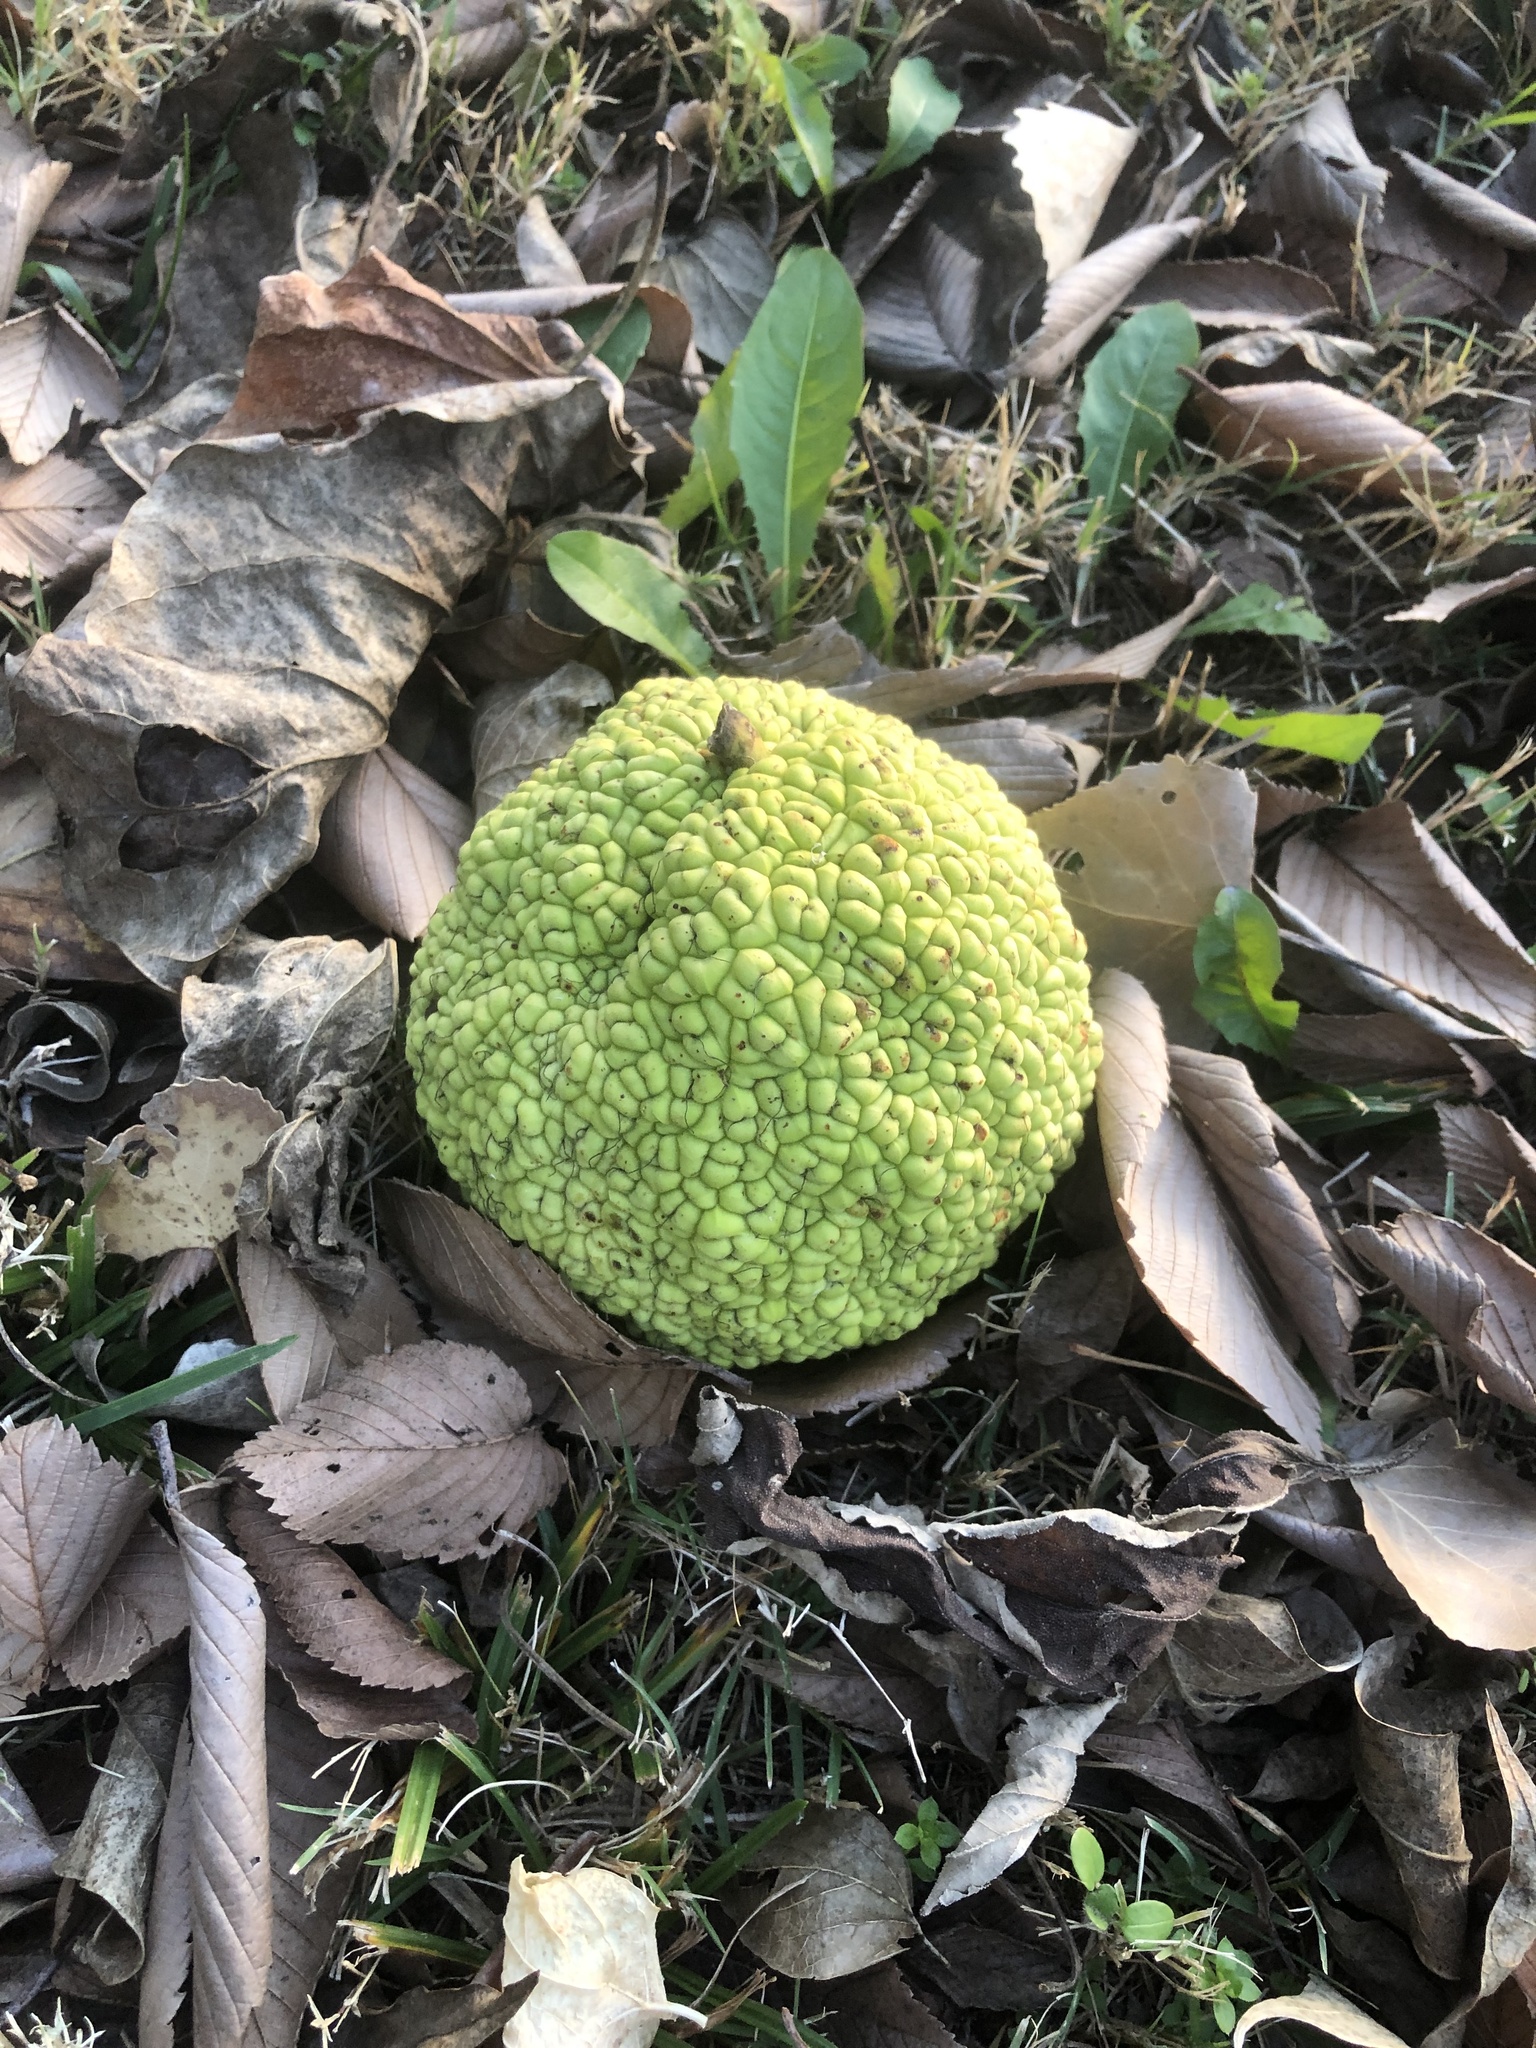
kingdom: Plantae
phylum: Tracheophyta
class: Magnoliopsida
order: Rosales
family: Moraceae
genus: Maclura
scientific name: Maclura pomifera
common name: Osage-orange
